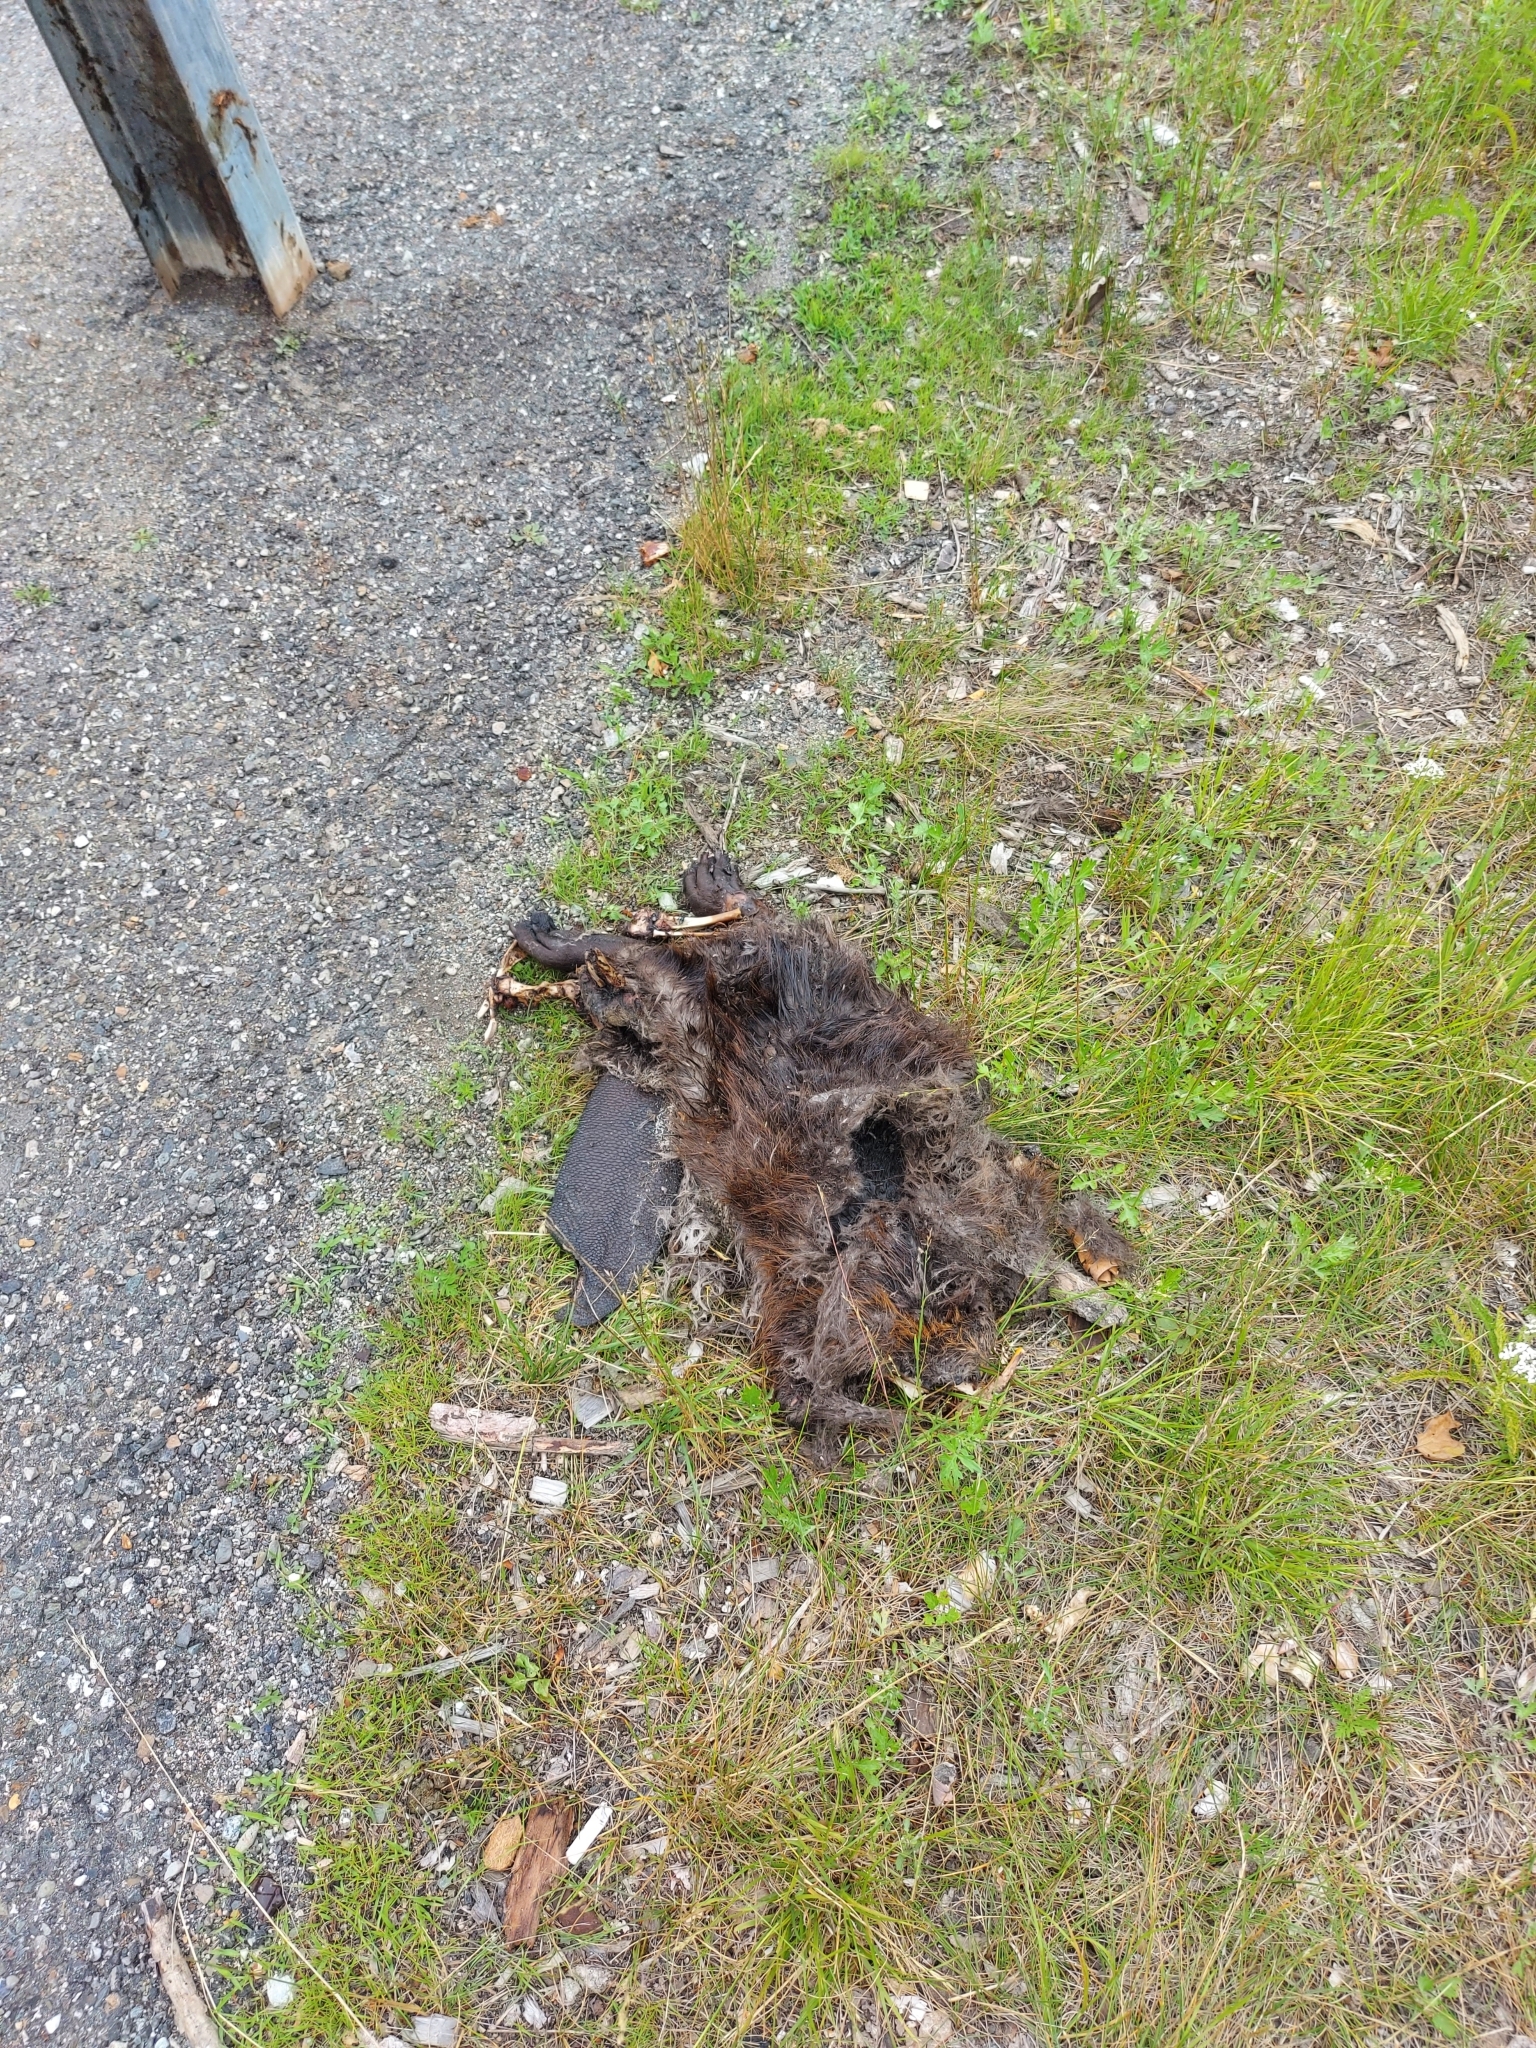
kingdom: Animalia
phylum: Chordata
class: Mammalia
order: Rodentia
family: Castoridae
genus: Castor
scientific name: Castor canadensis
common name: American beaver
